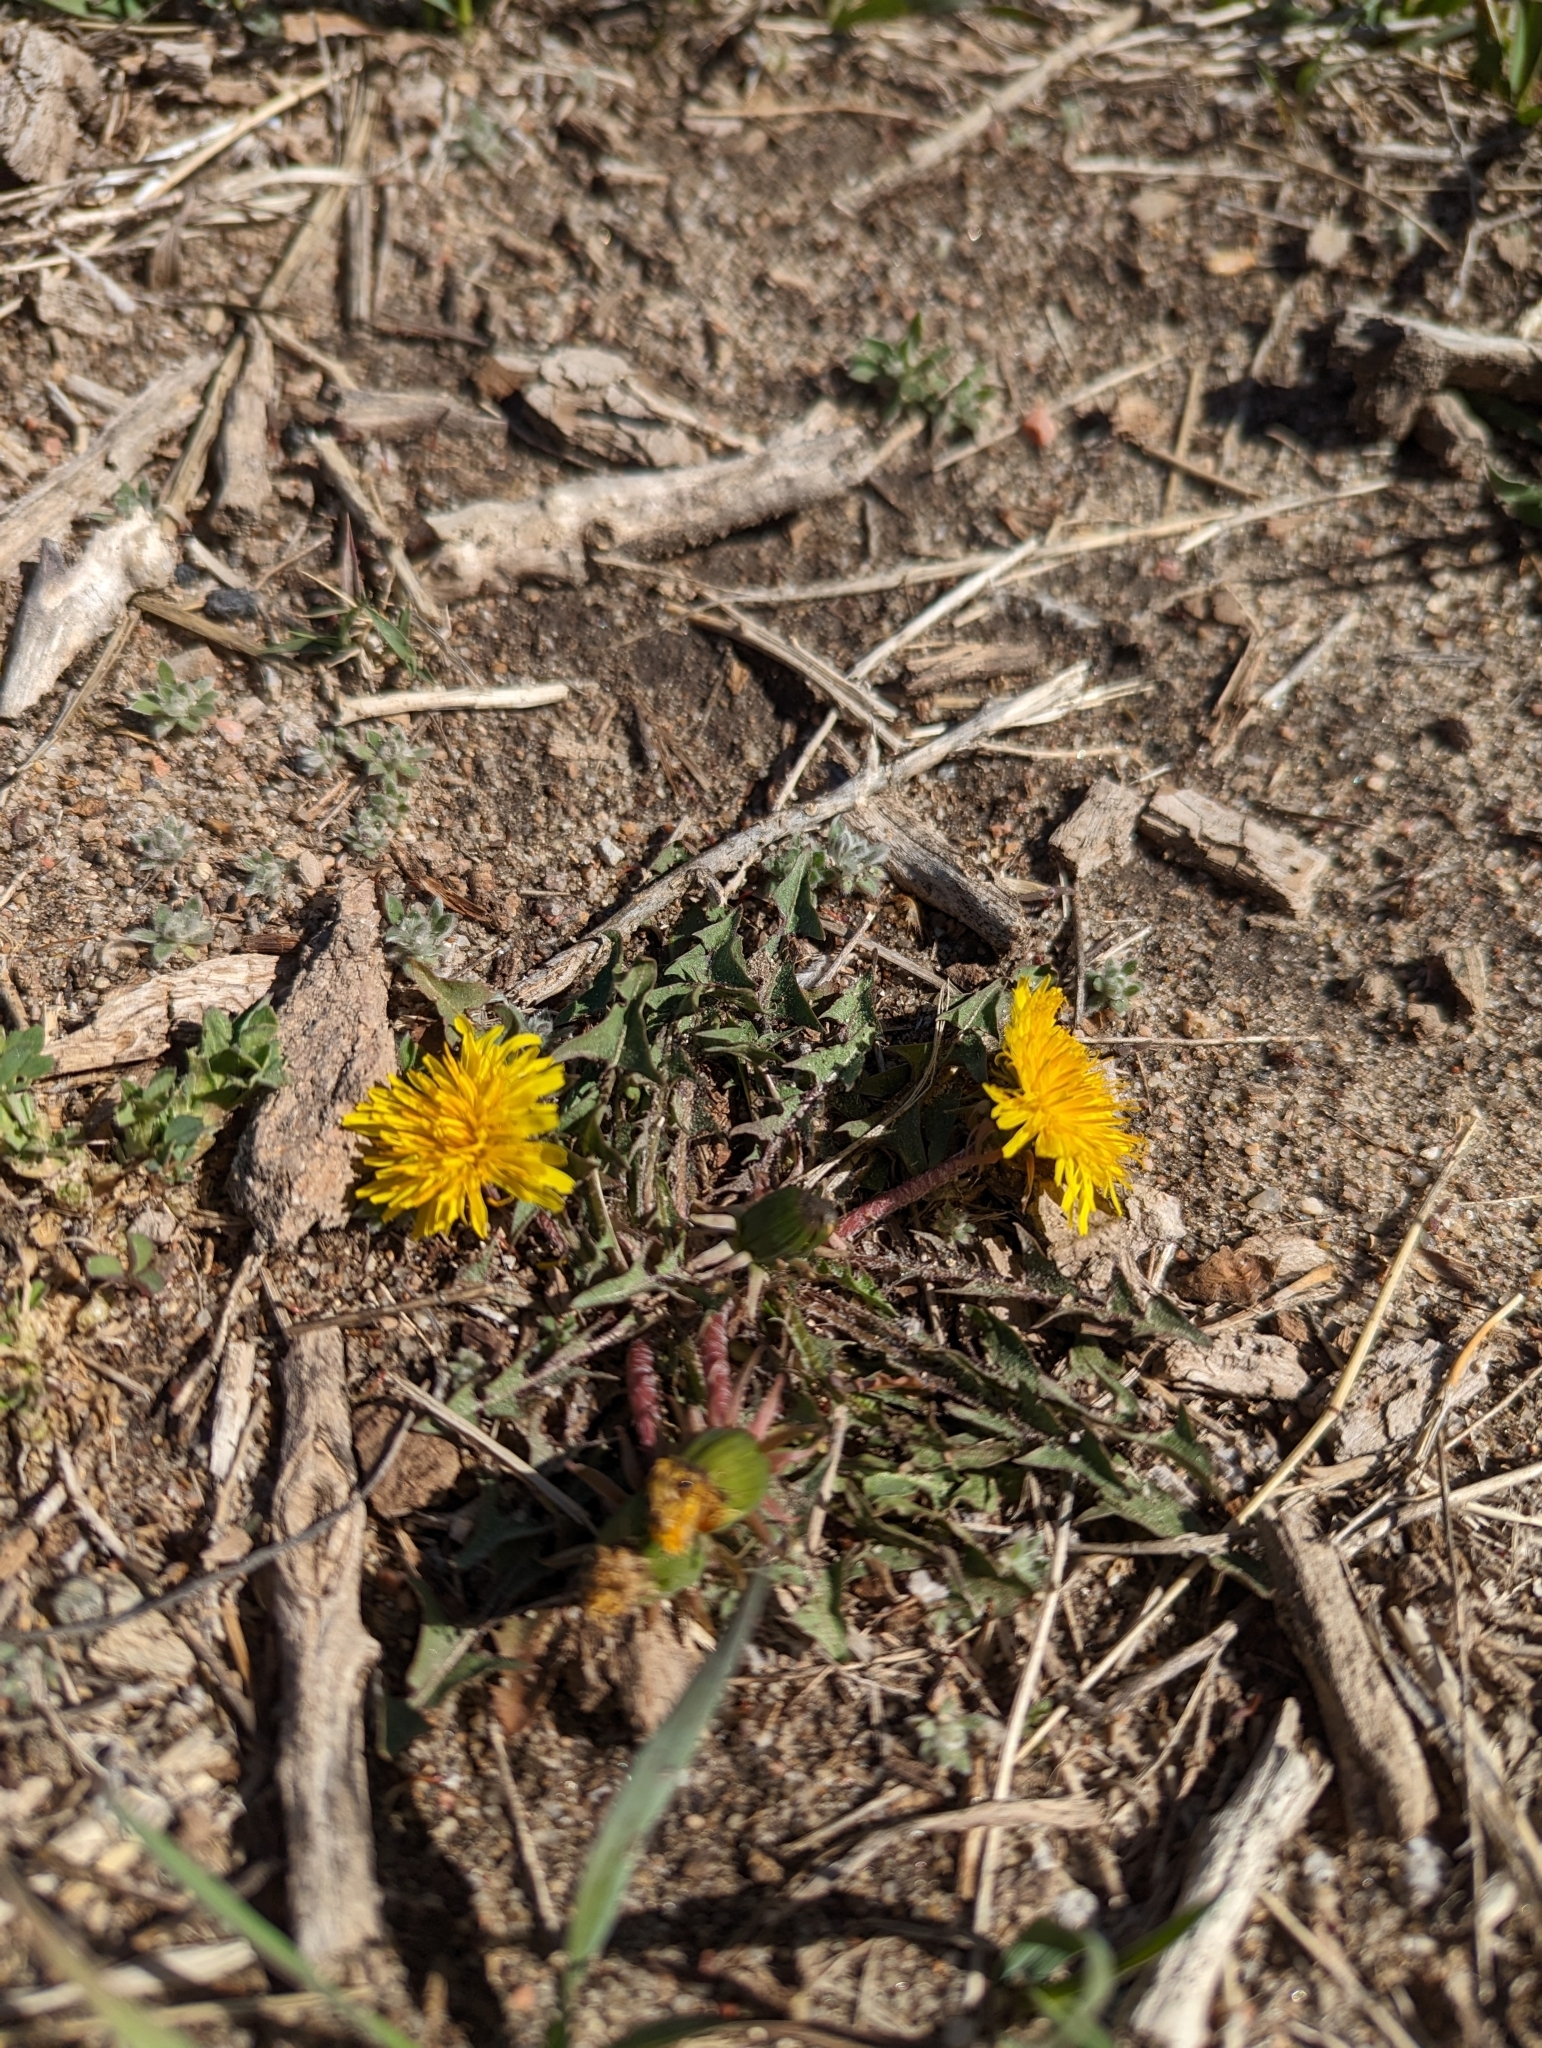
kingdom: Plantae
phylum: Tracheophyta
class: Magnoliopsida
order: Asterales
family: Asteraceae
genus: Taraxacum
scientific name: Taraxacum officinale
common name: Common dandelion
